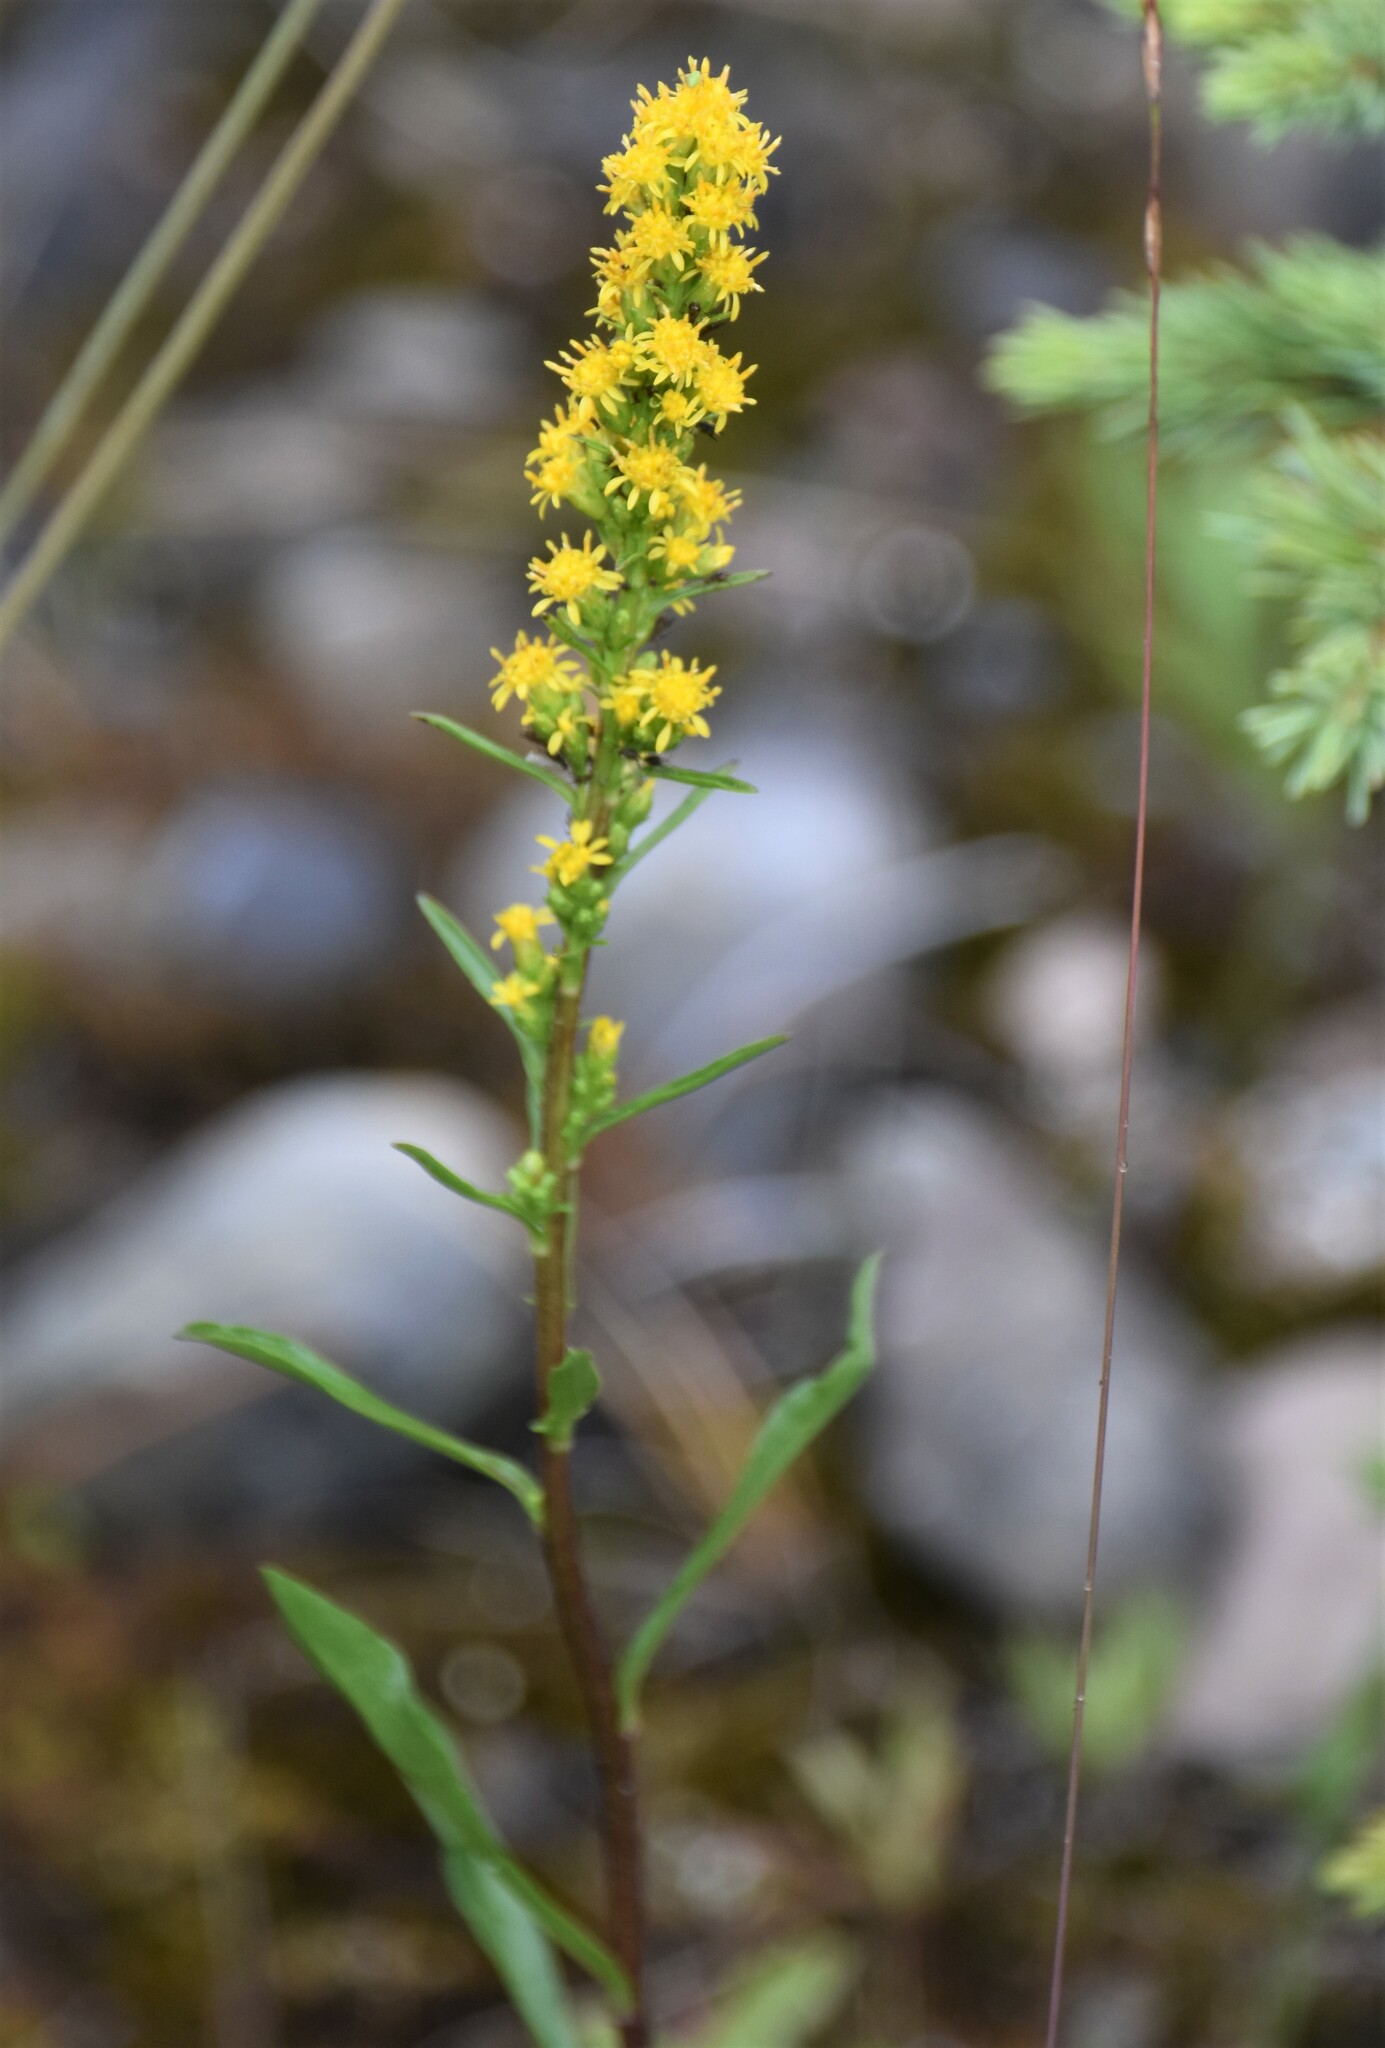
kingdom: Plantae
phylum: Tracheophyta
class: Magnoliopsida
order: Asterales
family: Asteraceae
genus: Solidago
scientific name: Solidago glutinosa
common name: Decumbent goldenrod
